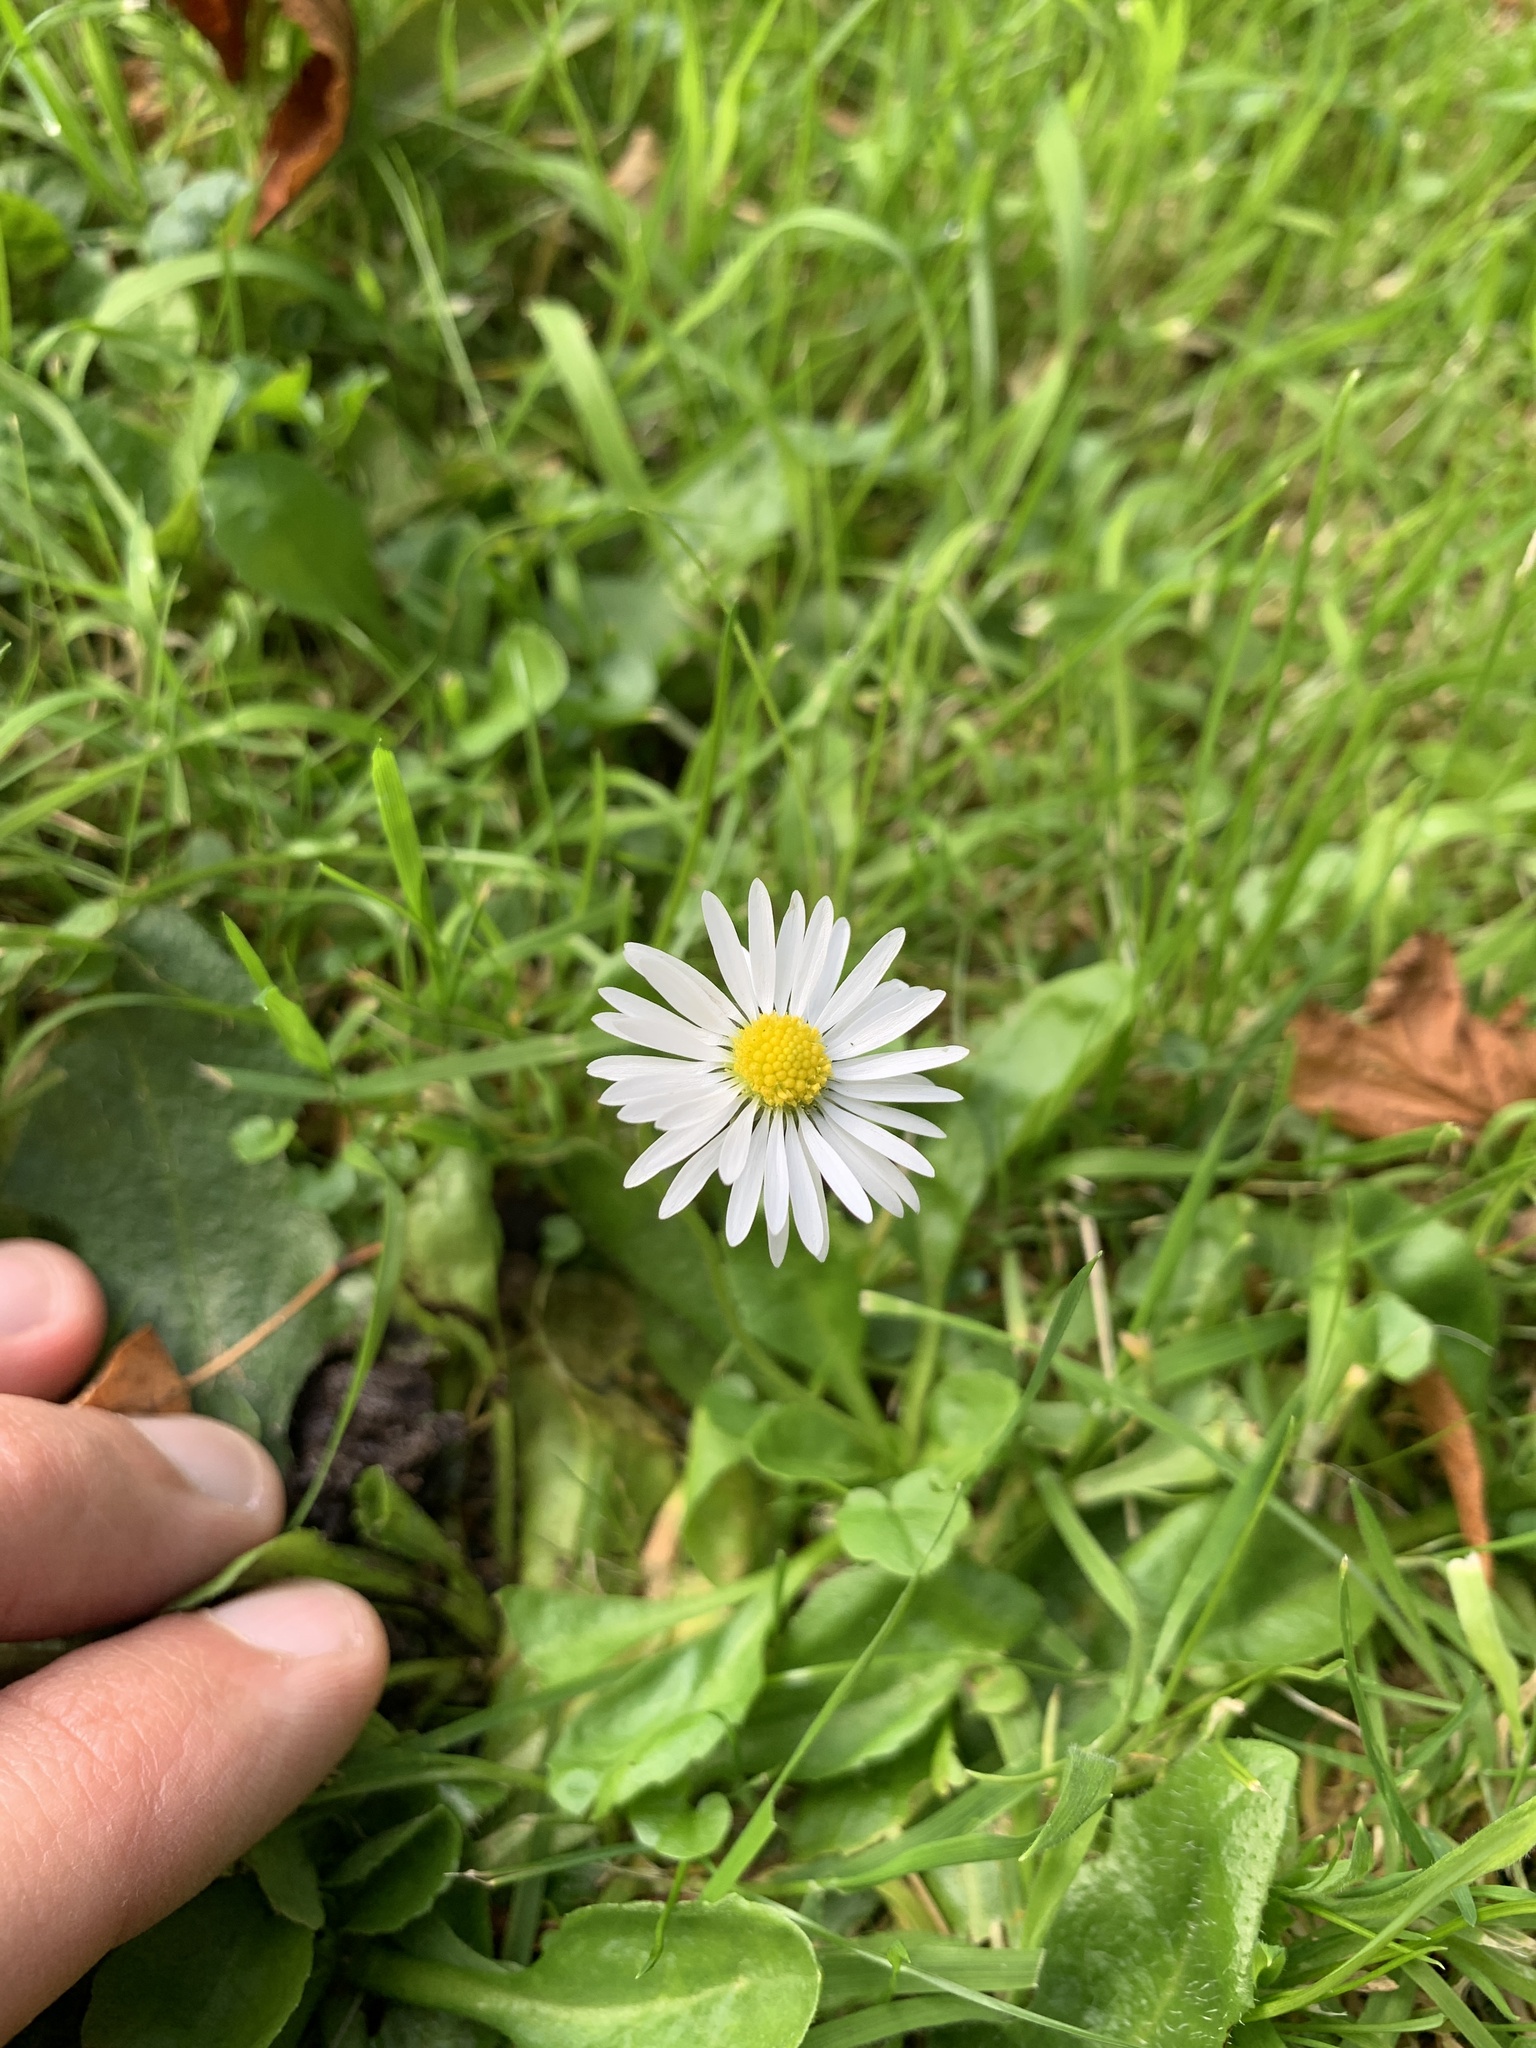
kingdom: Plantae
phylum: Tracheophyta
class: Magnoliopsida
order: Asterales
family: Asteraceae
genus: Bellis
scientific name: Bellis perennis
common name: Lawndaisy
